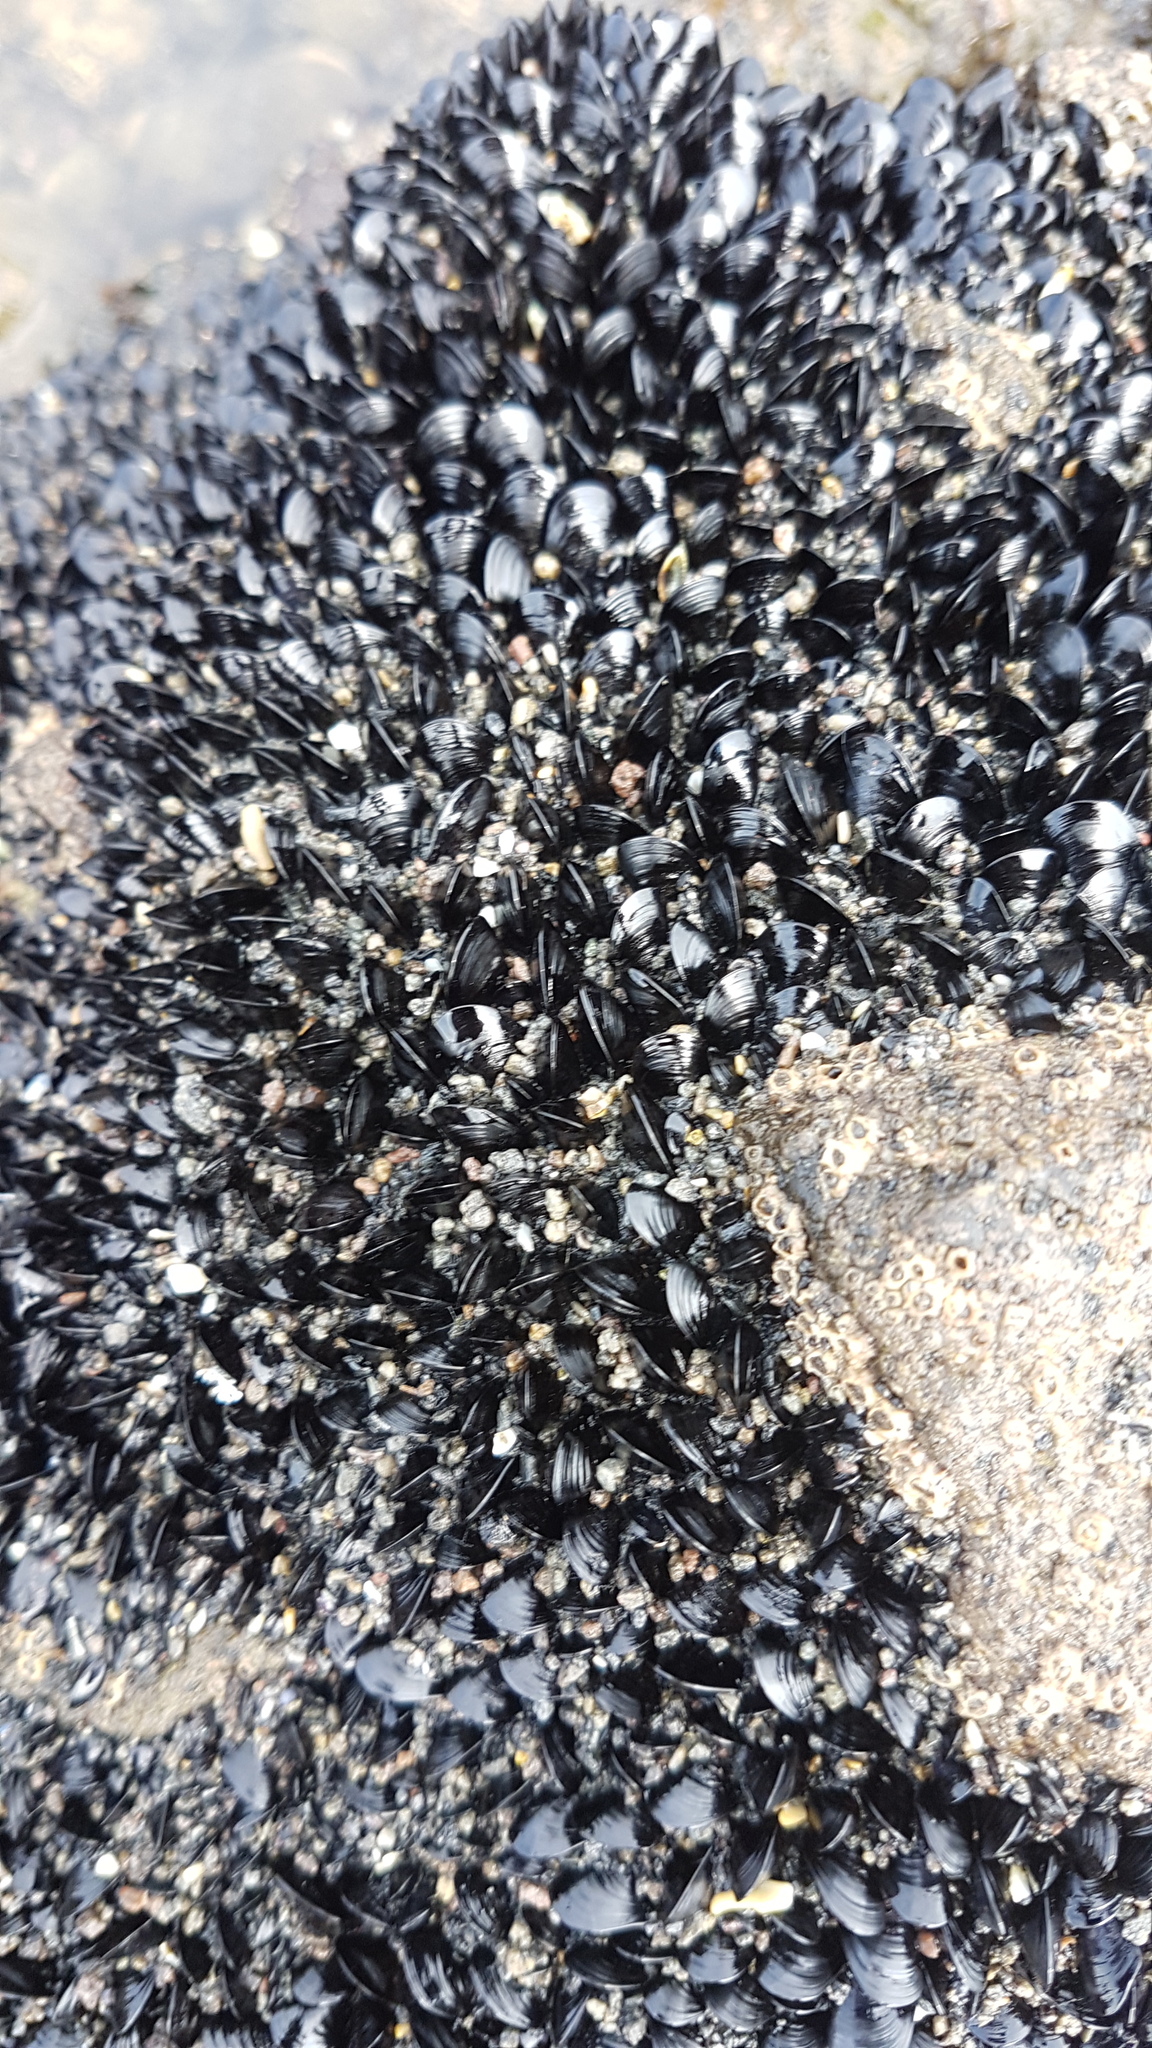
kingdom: Animalia
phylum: Mollusca
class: Bivalvia
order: Mytilida
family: Mytilidae
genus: Xenostrobus
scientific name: Xenostrobus neozelanicus
